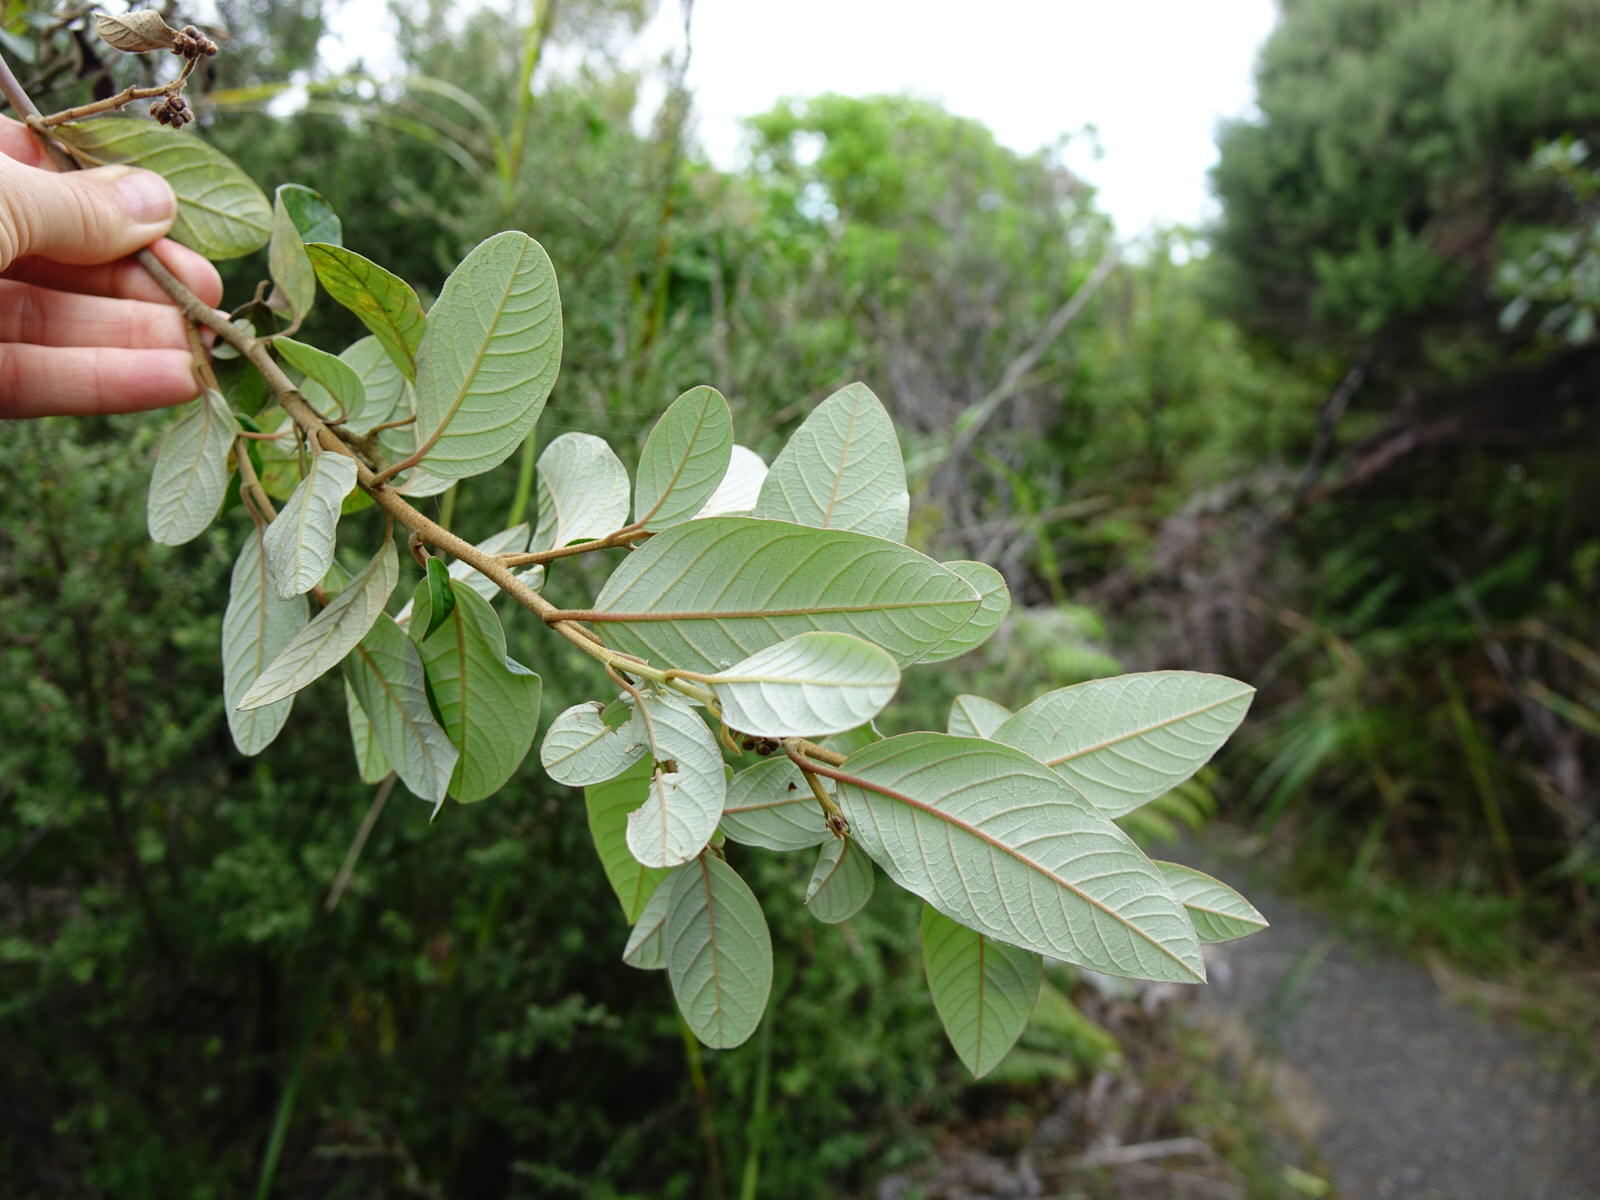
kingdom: Plantae
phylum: Tracheophyta
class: Magnoliopsida
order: Rosales
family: Rhamnaceae
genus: Pomaderris
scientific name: Pomaderris kumeraho
